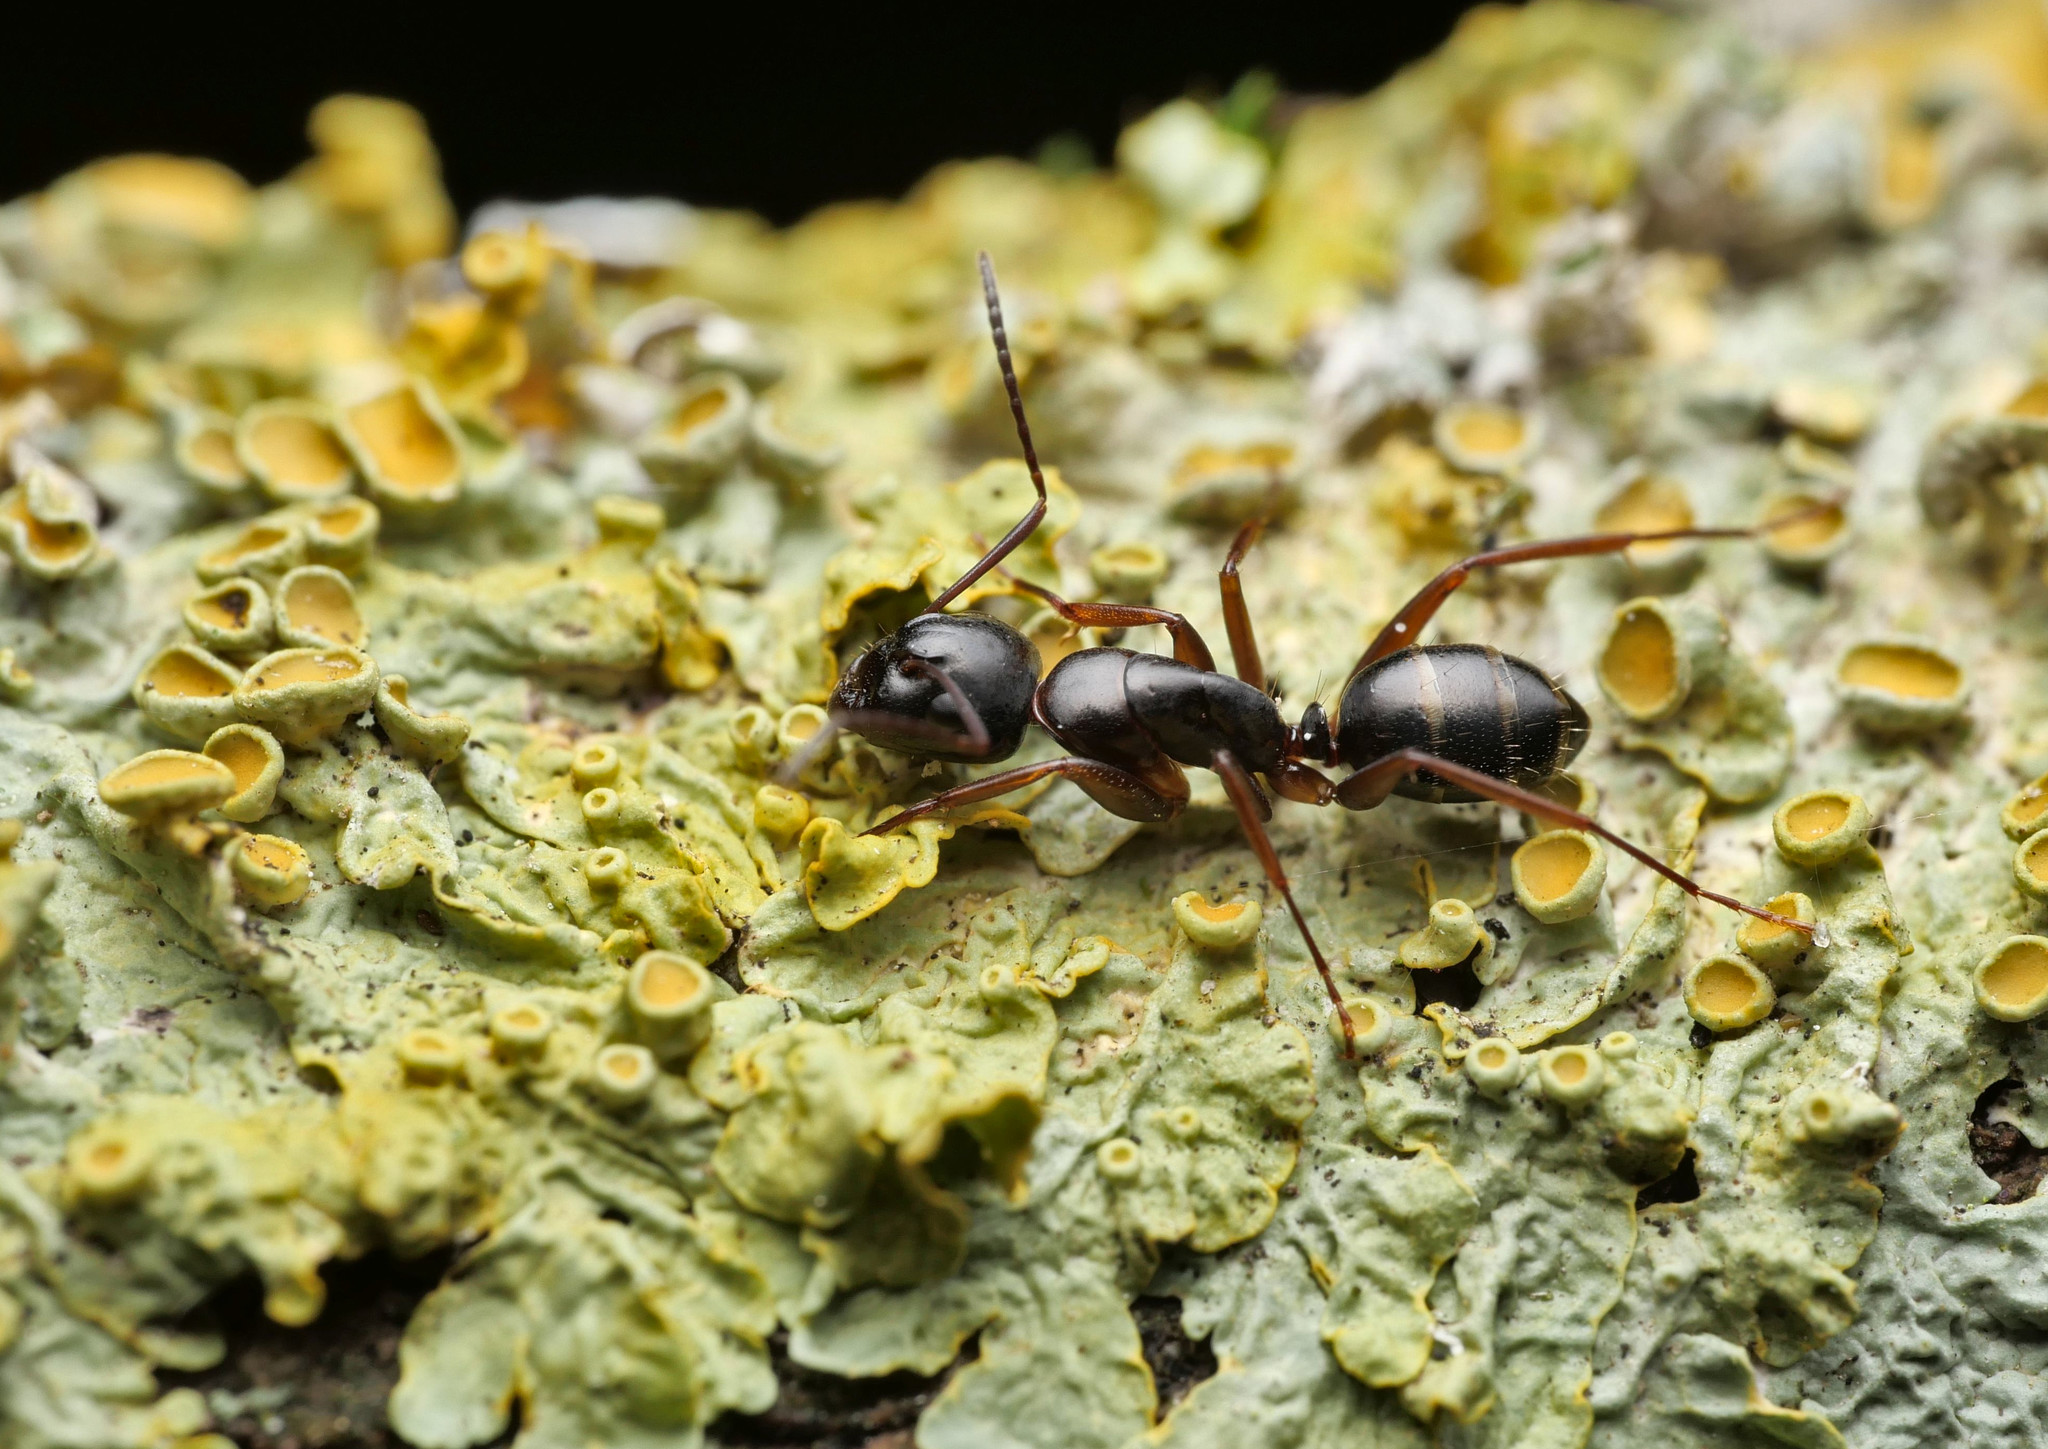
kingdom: Animalia
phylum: Arthropoda
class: Insecta
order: Hymenoptera
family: Formicidae
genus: Camponotus
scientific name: Camponotus fallax
